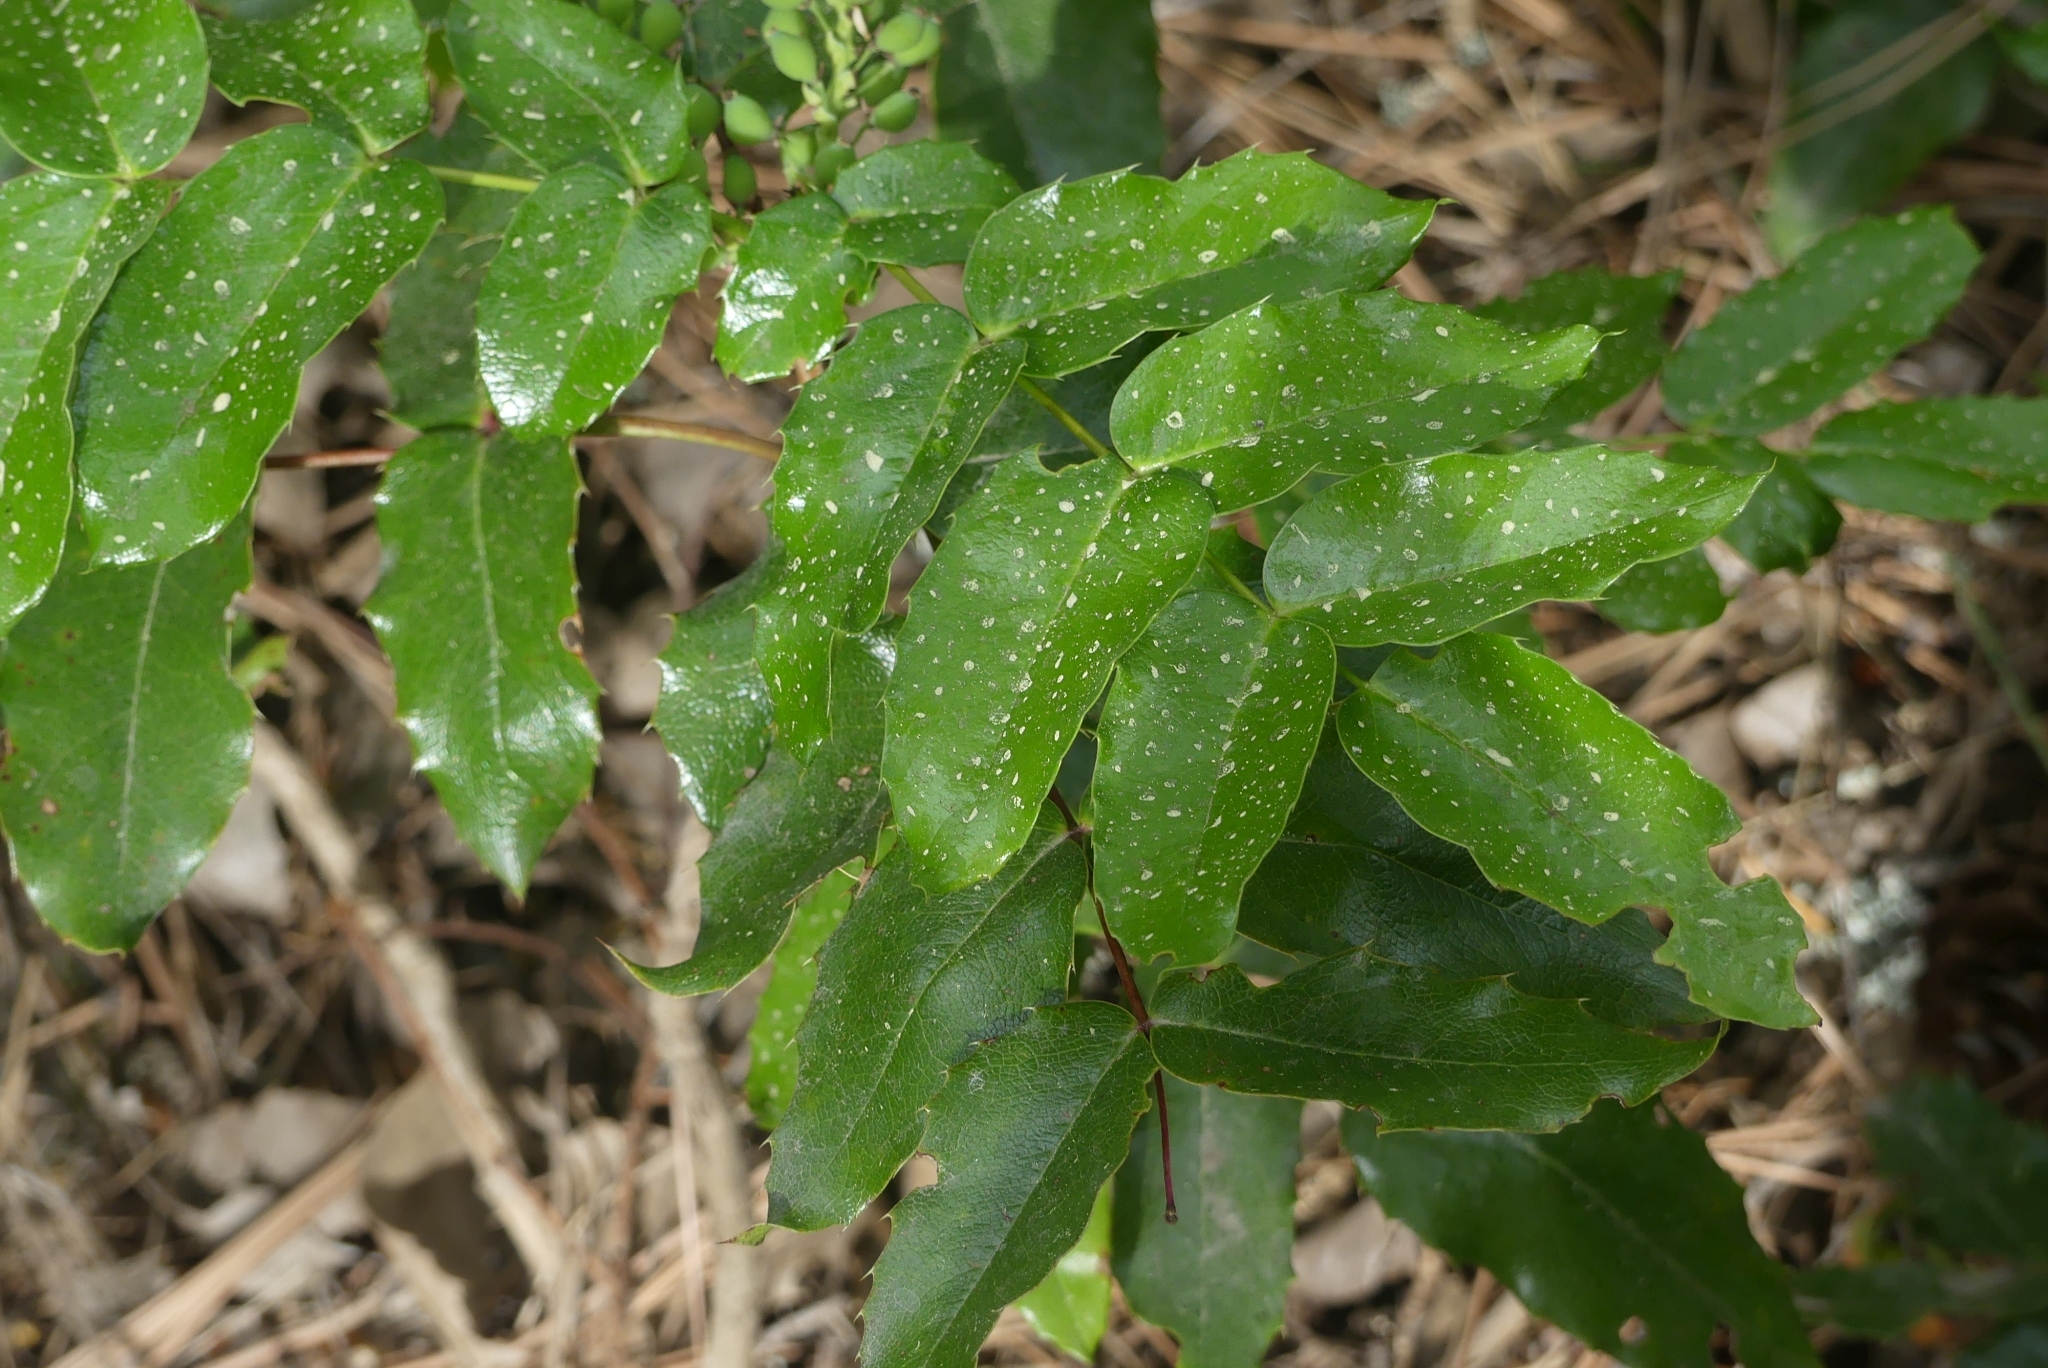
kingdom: Plantae
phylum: Tracheophyta
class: Magnoliopsida
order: Ranunculales
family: Berberidaceae
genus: Mahonia
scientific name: Mahonia aquifolium
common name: Oregon-grape
